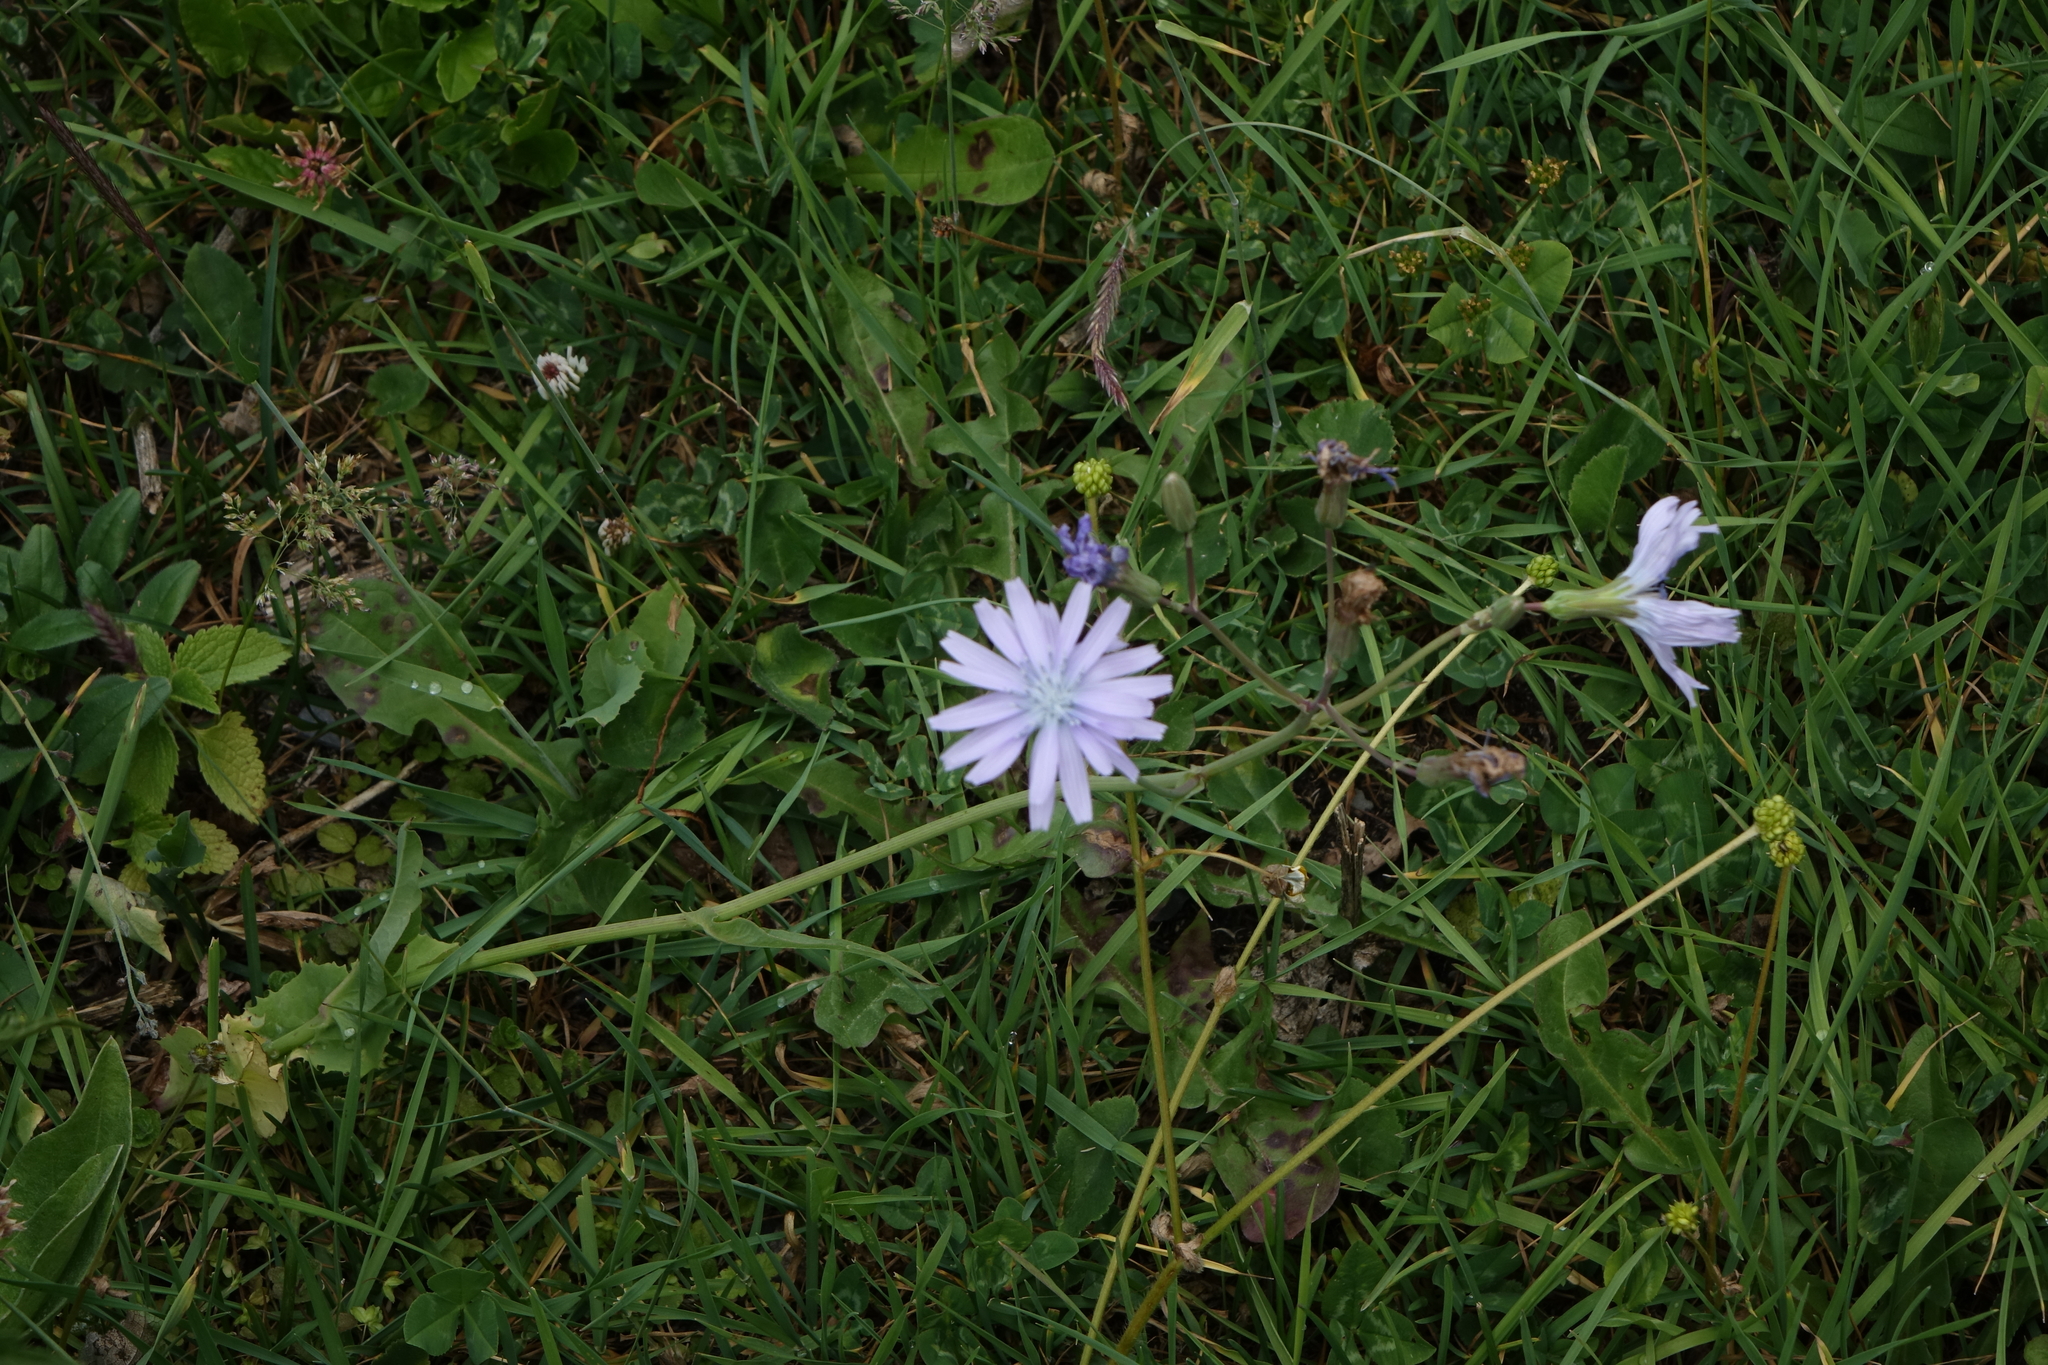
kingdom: Plantae
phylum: Tracheophyta
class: Magnoliopsida
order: Asterales
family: Asteraceae
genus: Lactuca
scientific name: Lactuca racemosa
